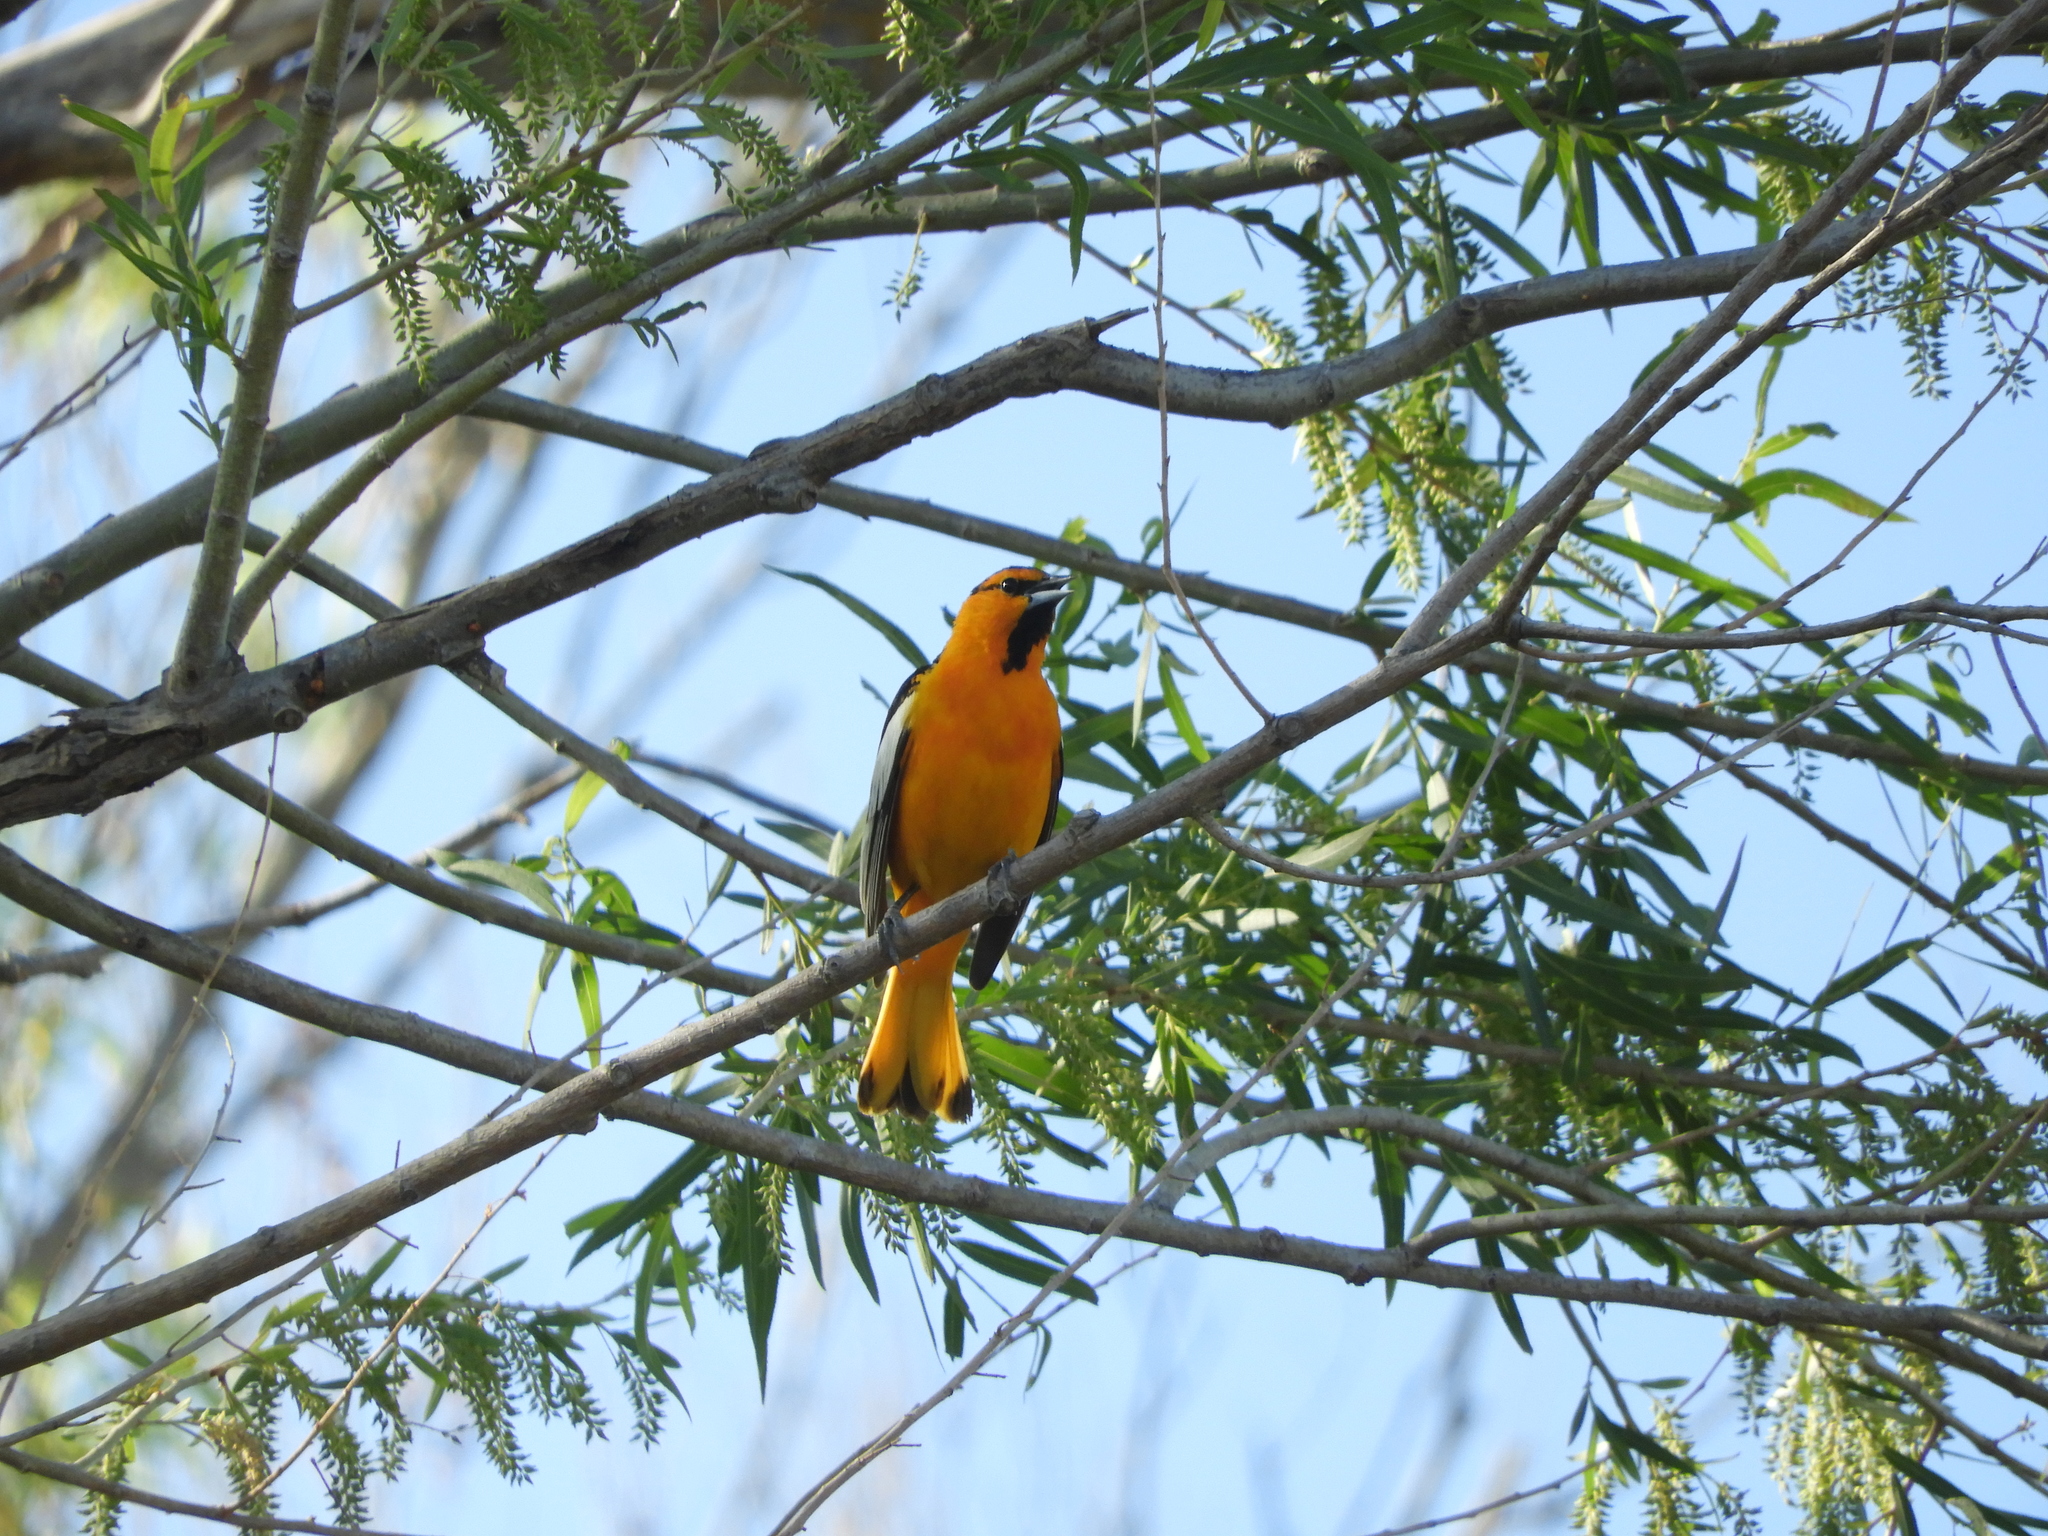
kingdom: Animalia
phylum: Chordata
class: Aves
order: Passeriformes
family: Icteridae
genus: Icterus
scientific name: Icterus bullockii
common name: Bullock's oriole
